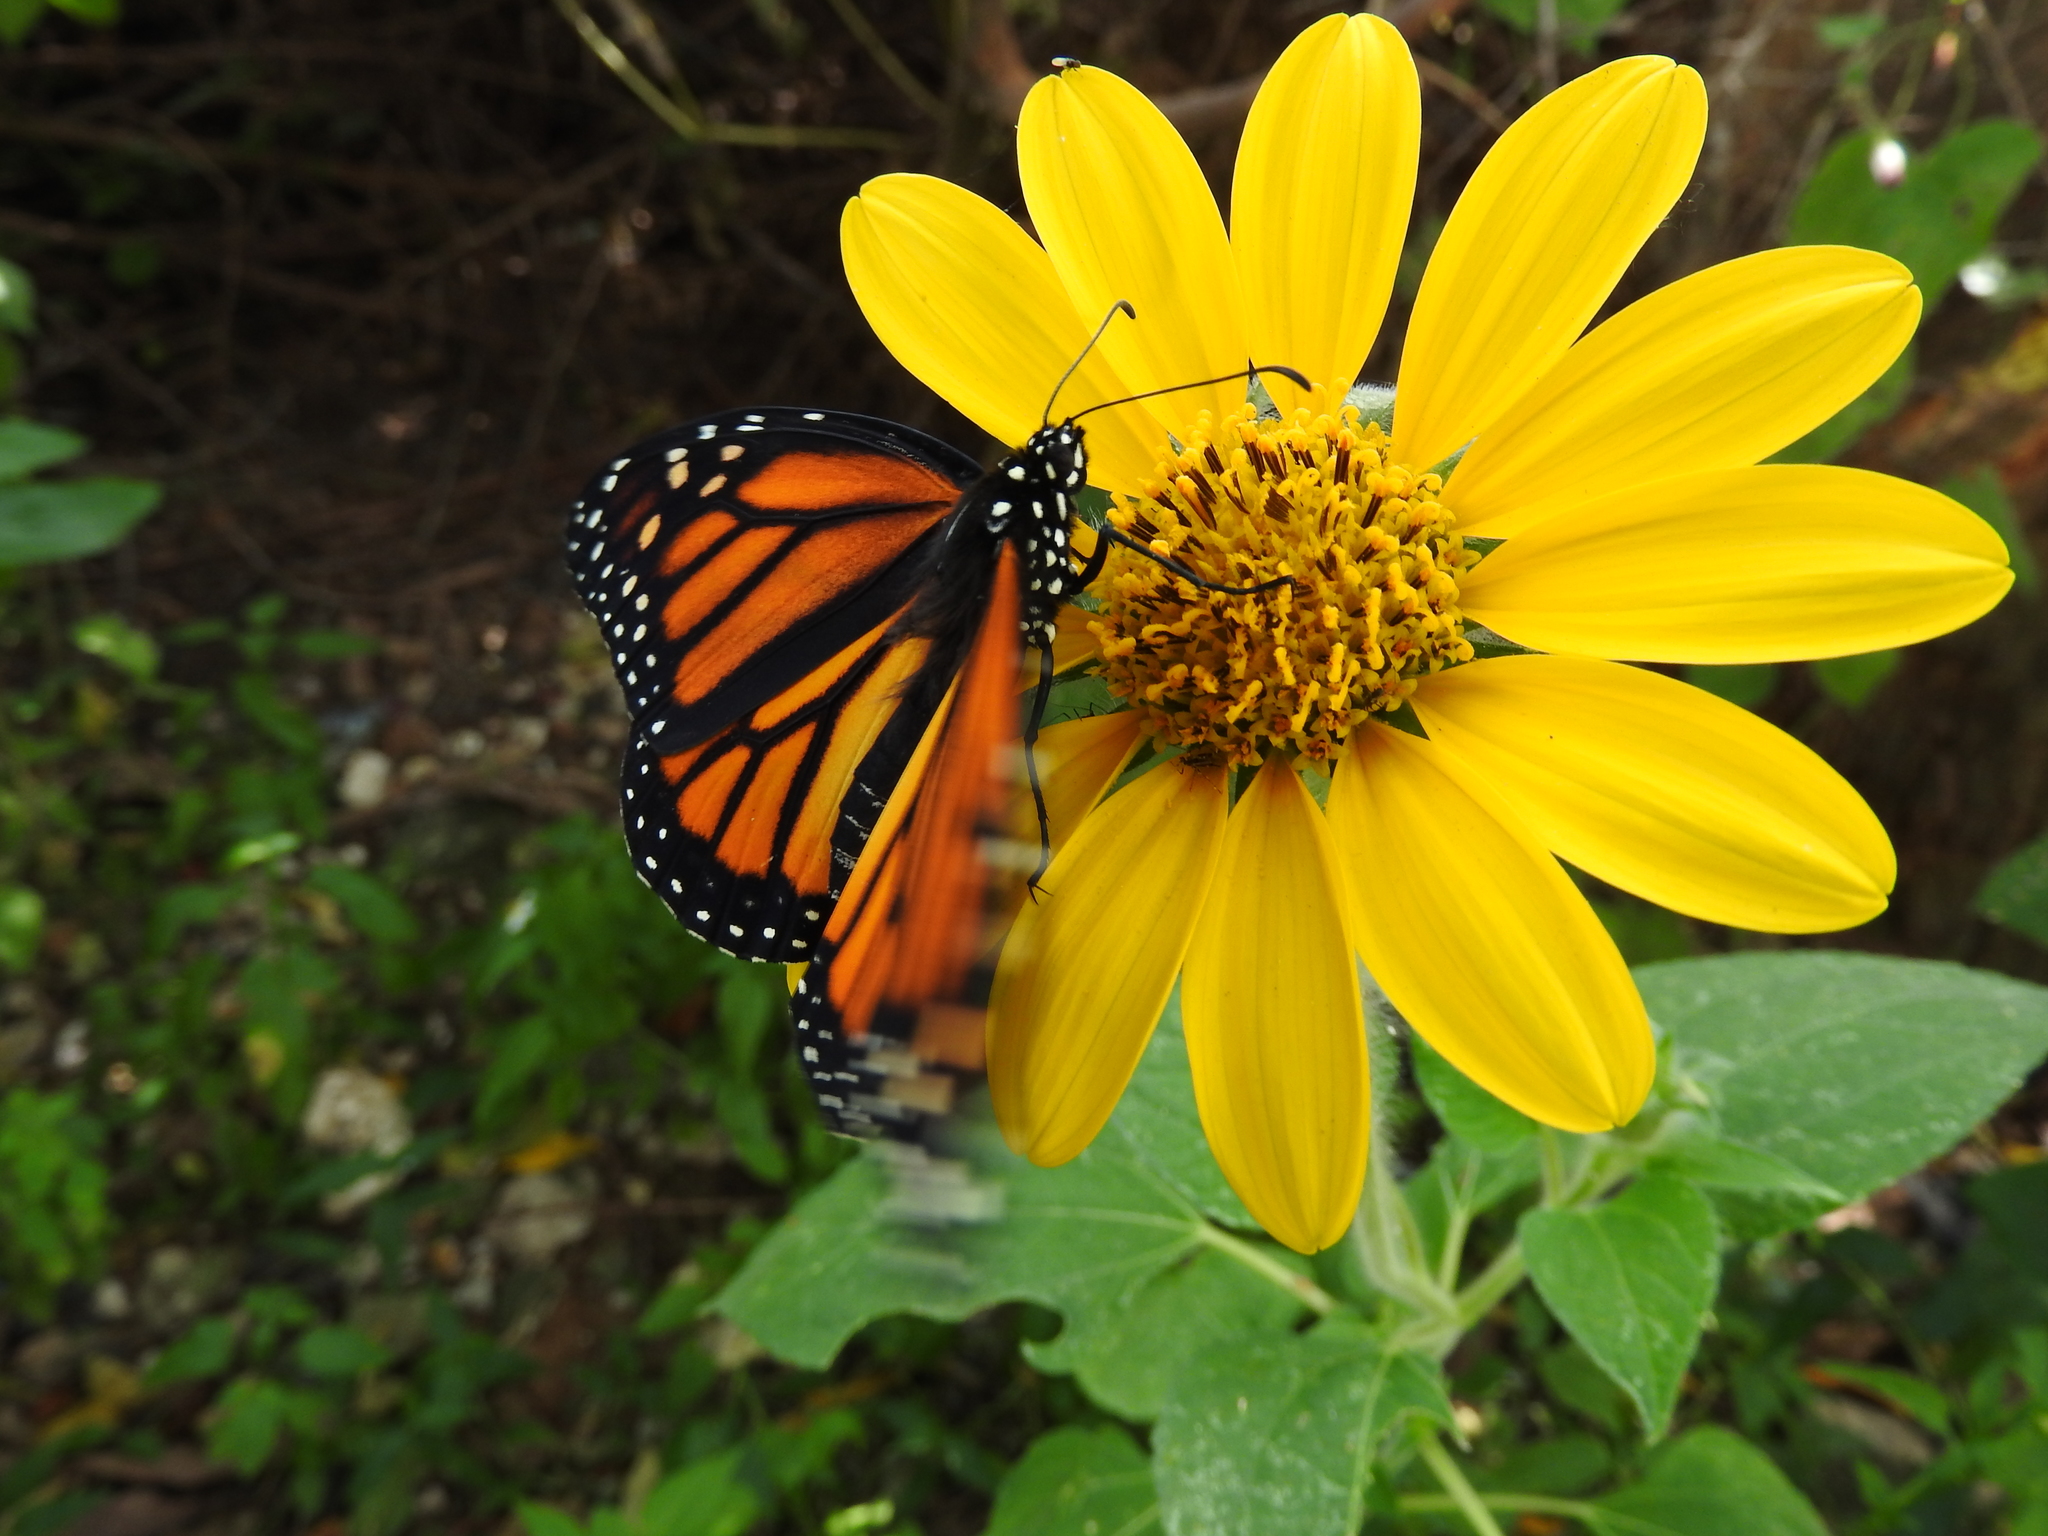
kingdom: Animalia
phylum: Arthropoda
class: Insecta
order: Lepidoptera
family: Nymphalidae
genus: Danaus
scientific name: Danaus plexippus
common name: Monarch
